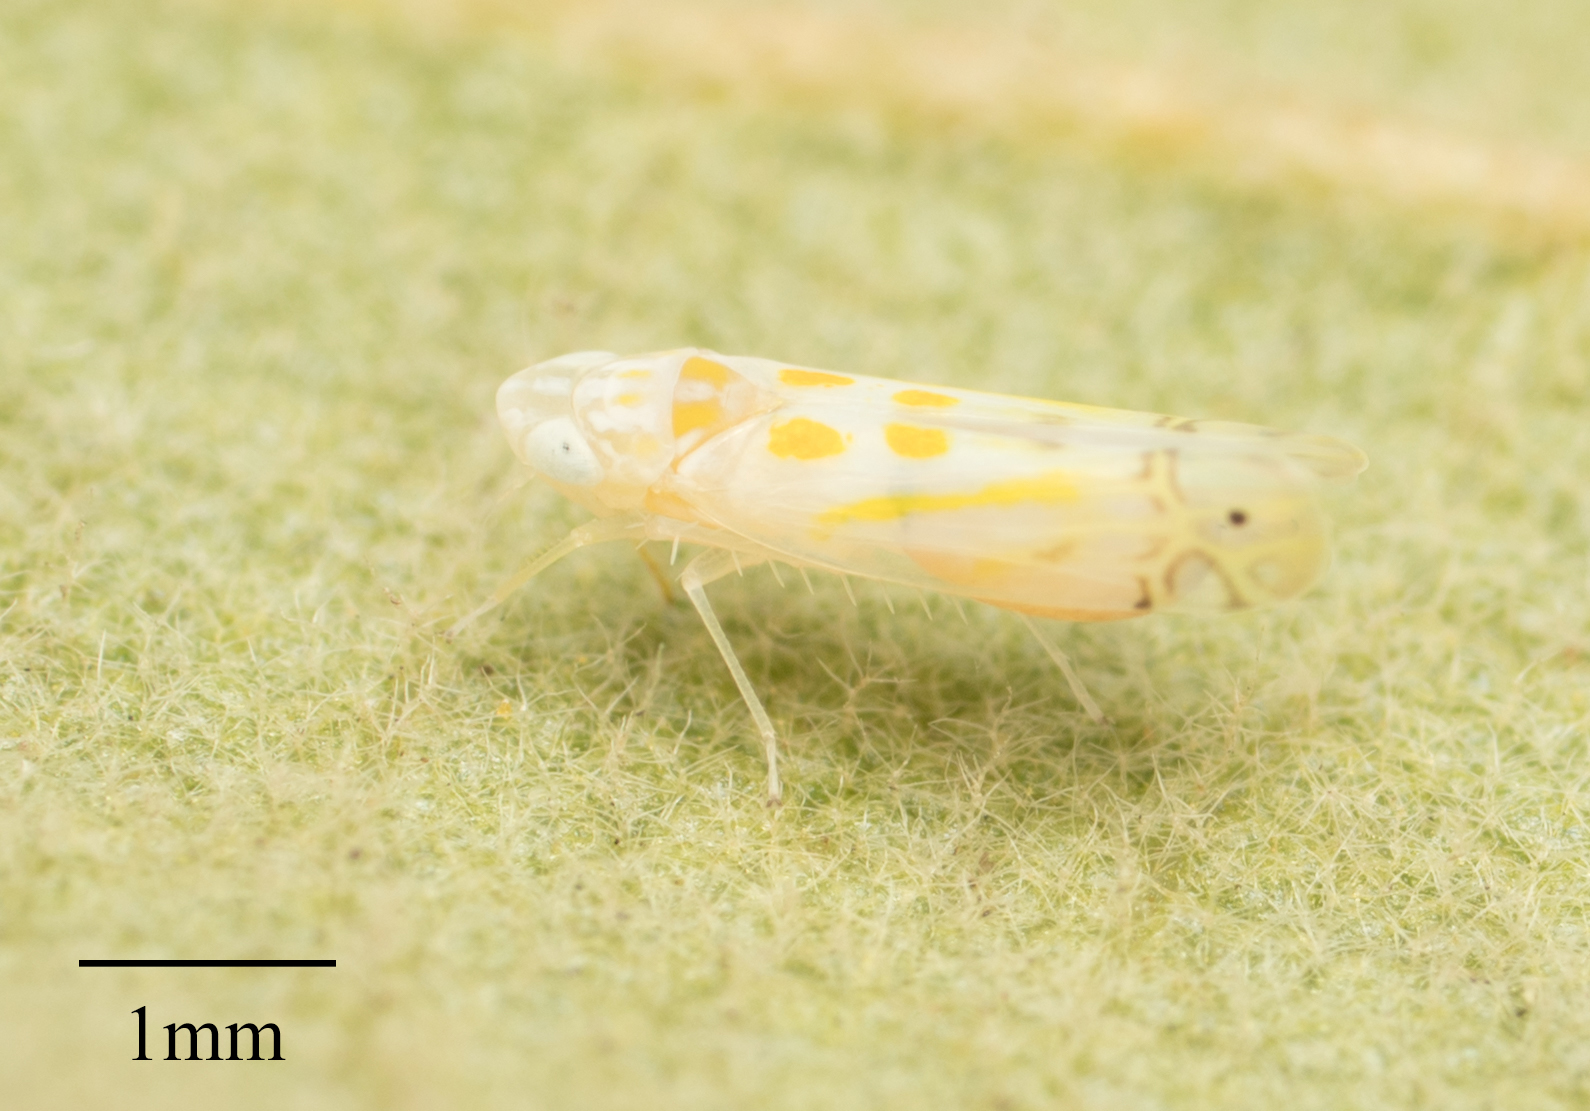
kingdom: Animalia
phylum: Arthropoda
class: Insecta
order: Hemiptera
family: Cicadellidae
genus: Alconeura
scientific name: Alconeura quadrimaculata
